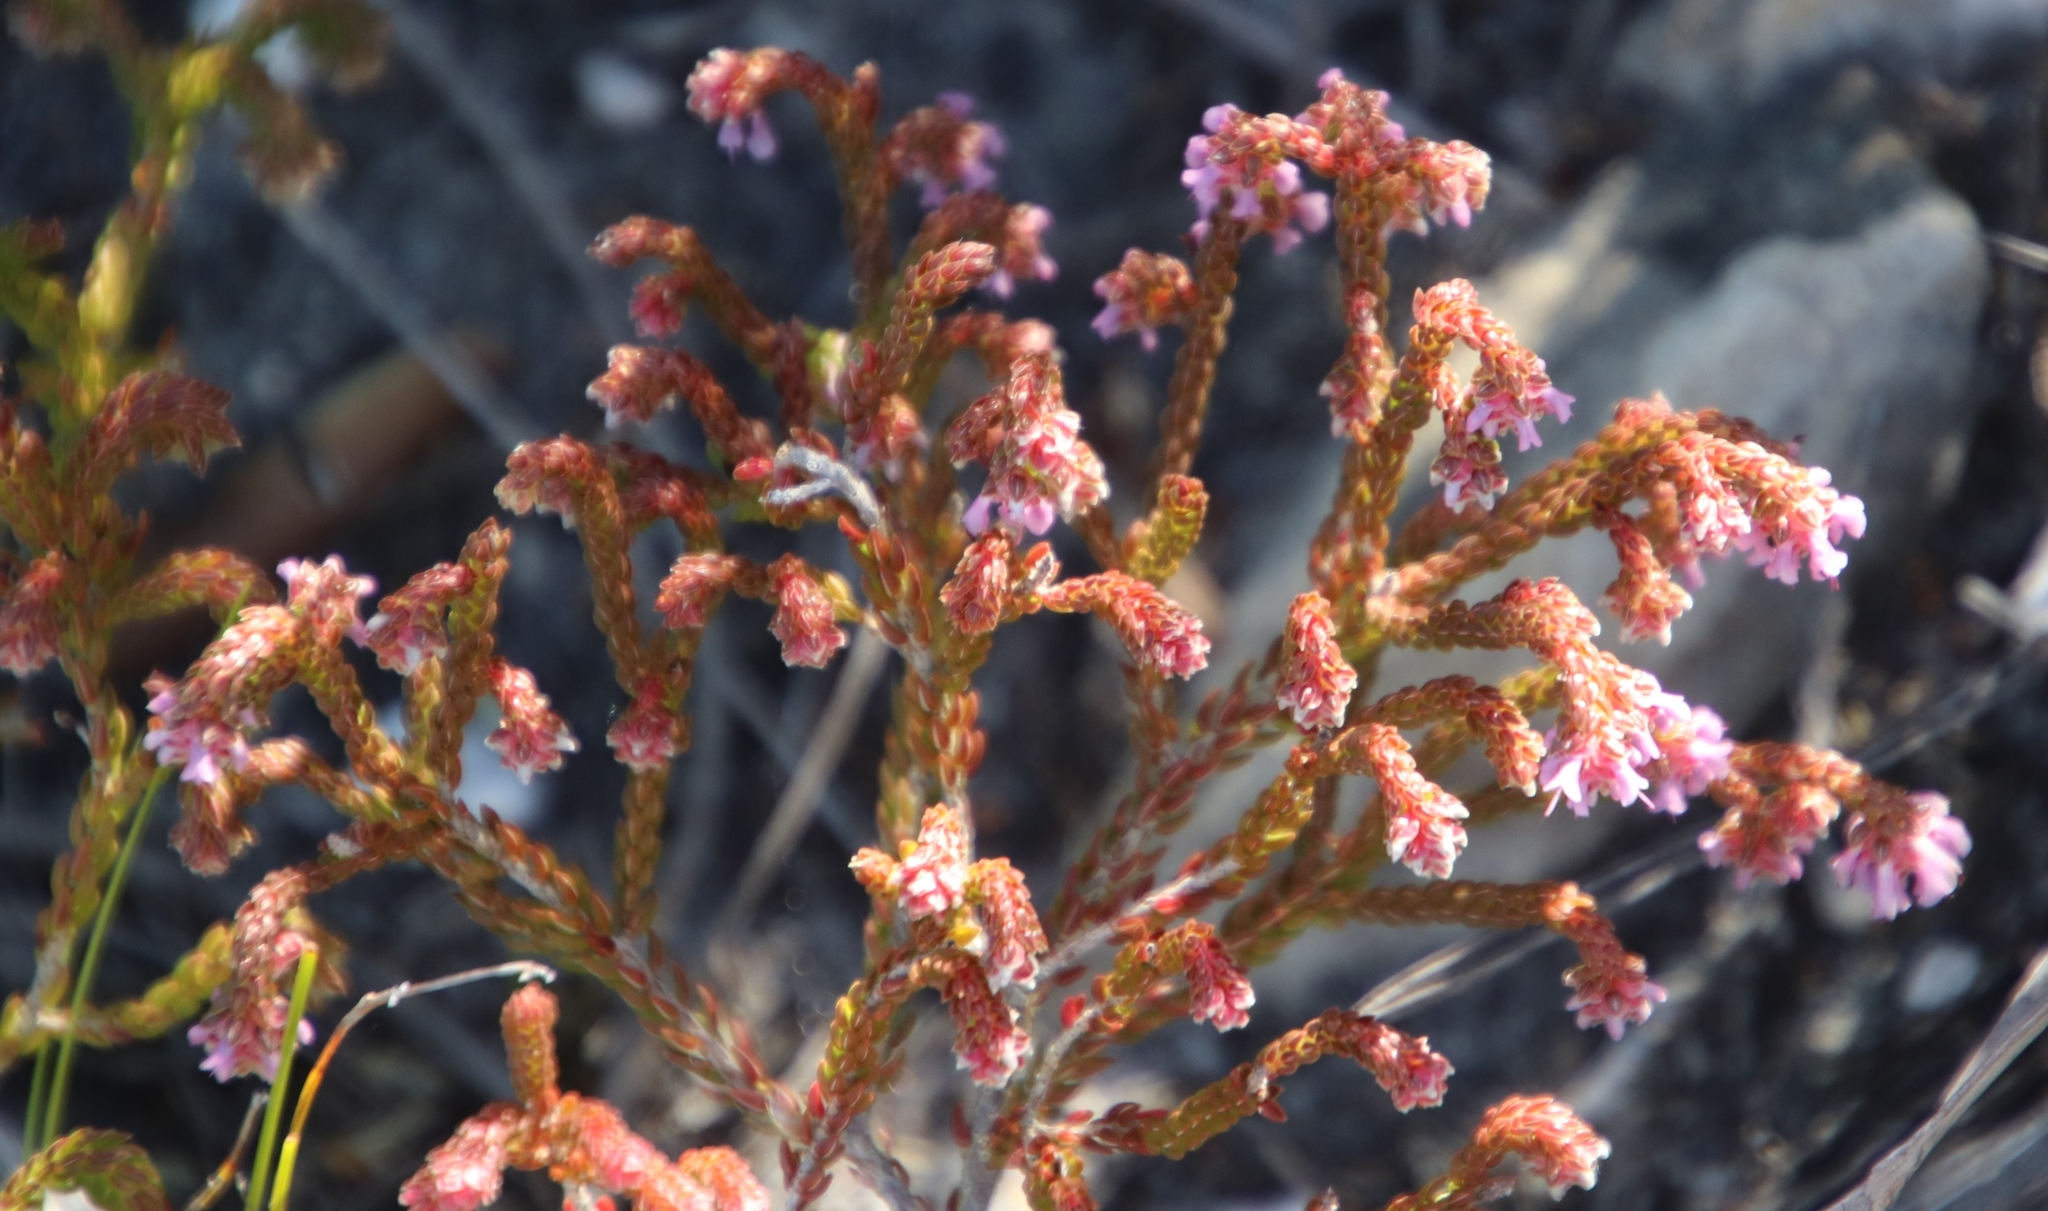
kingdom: Plantae
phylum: Tracheophyta
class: Magnoliopsida
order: Ericales
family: Ericaceae
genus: Erica
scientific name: Erica labialis
